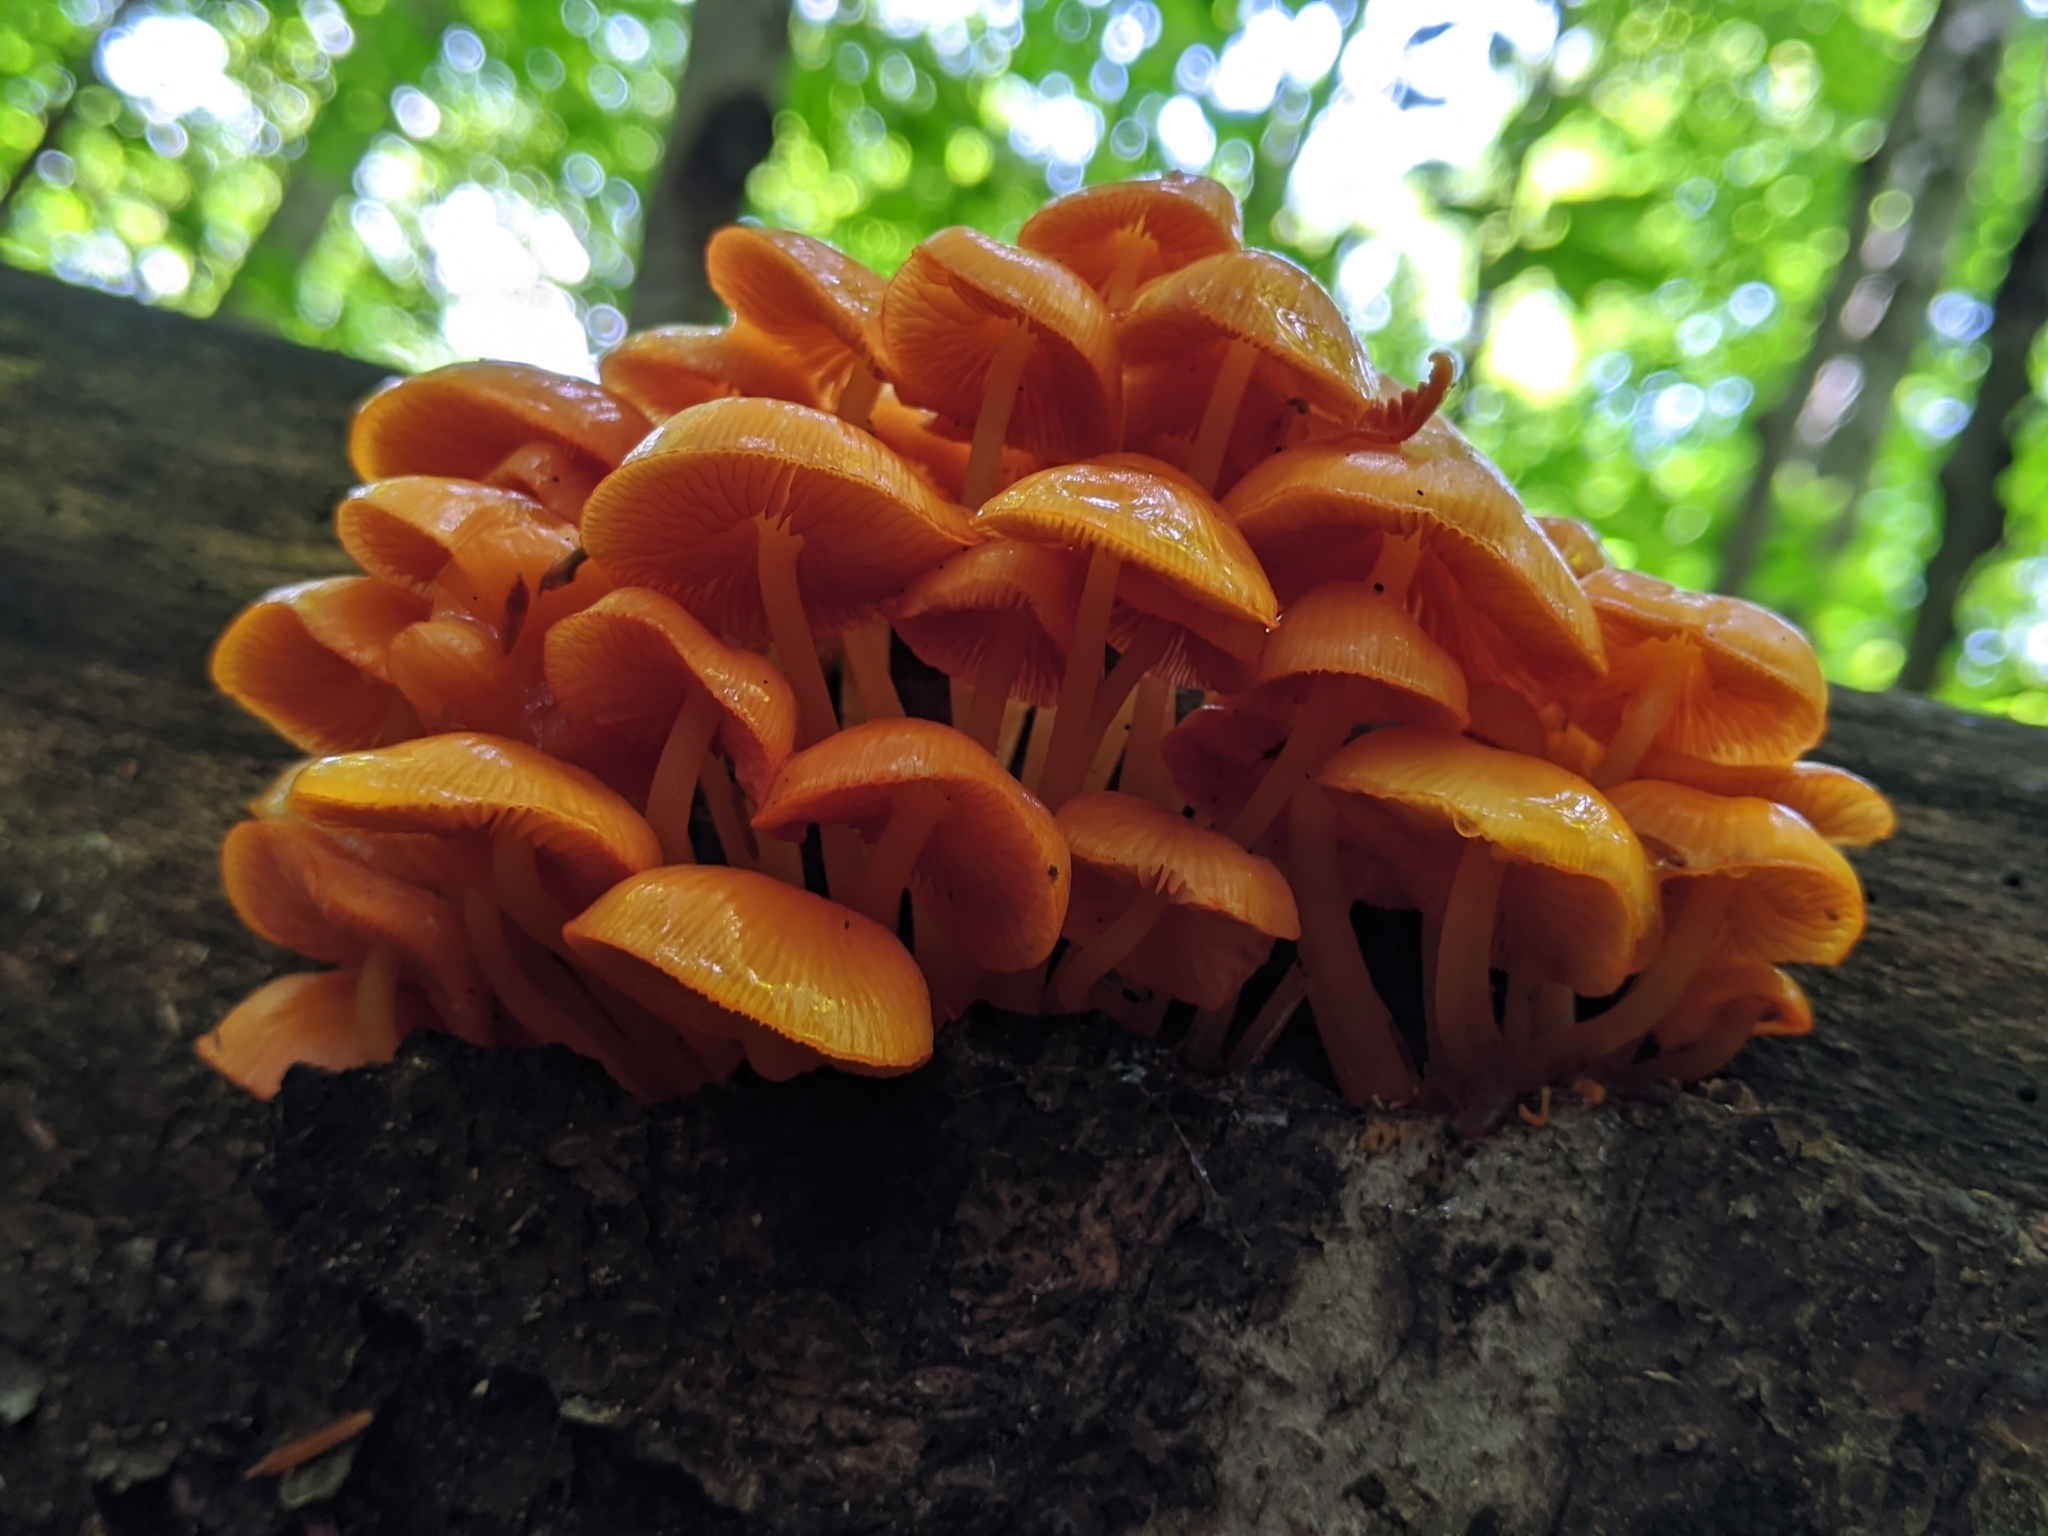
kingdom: Fungi
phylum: Basidiomycota
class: Agaricomycetes
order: Agaricales
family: Mycenaceae
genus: Mycena
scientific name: Mycena leaiana
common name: Orange mycena
